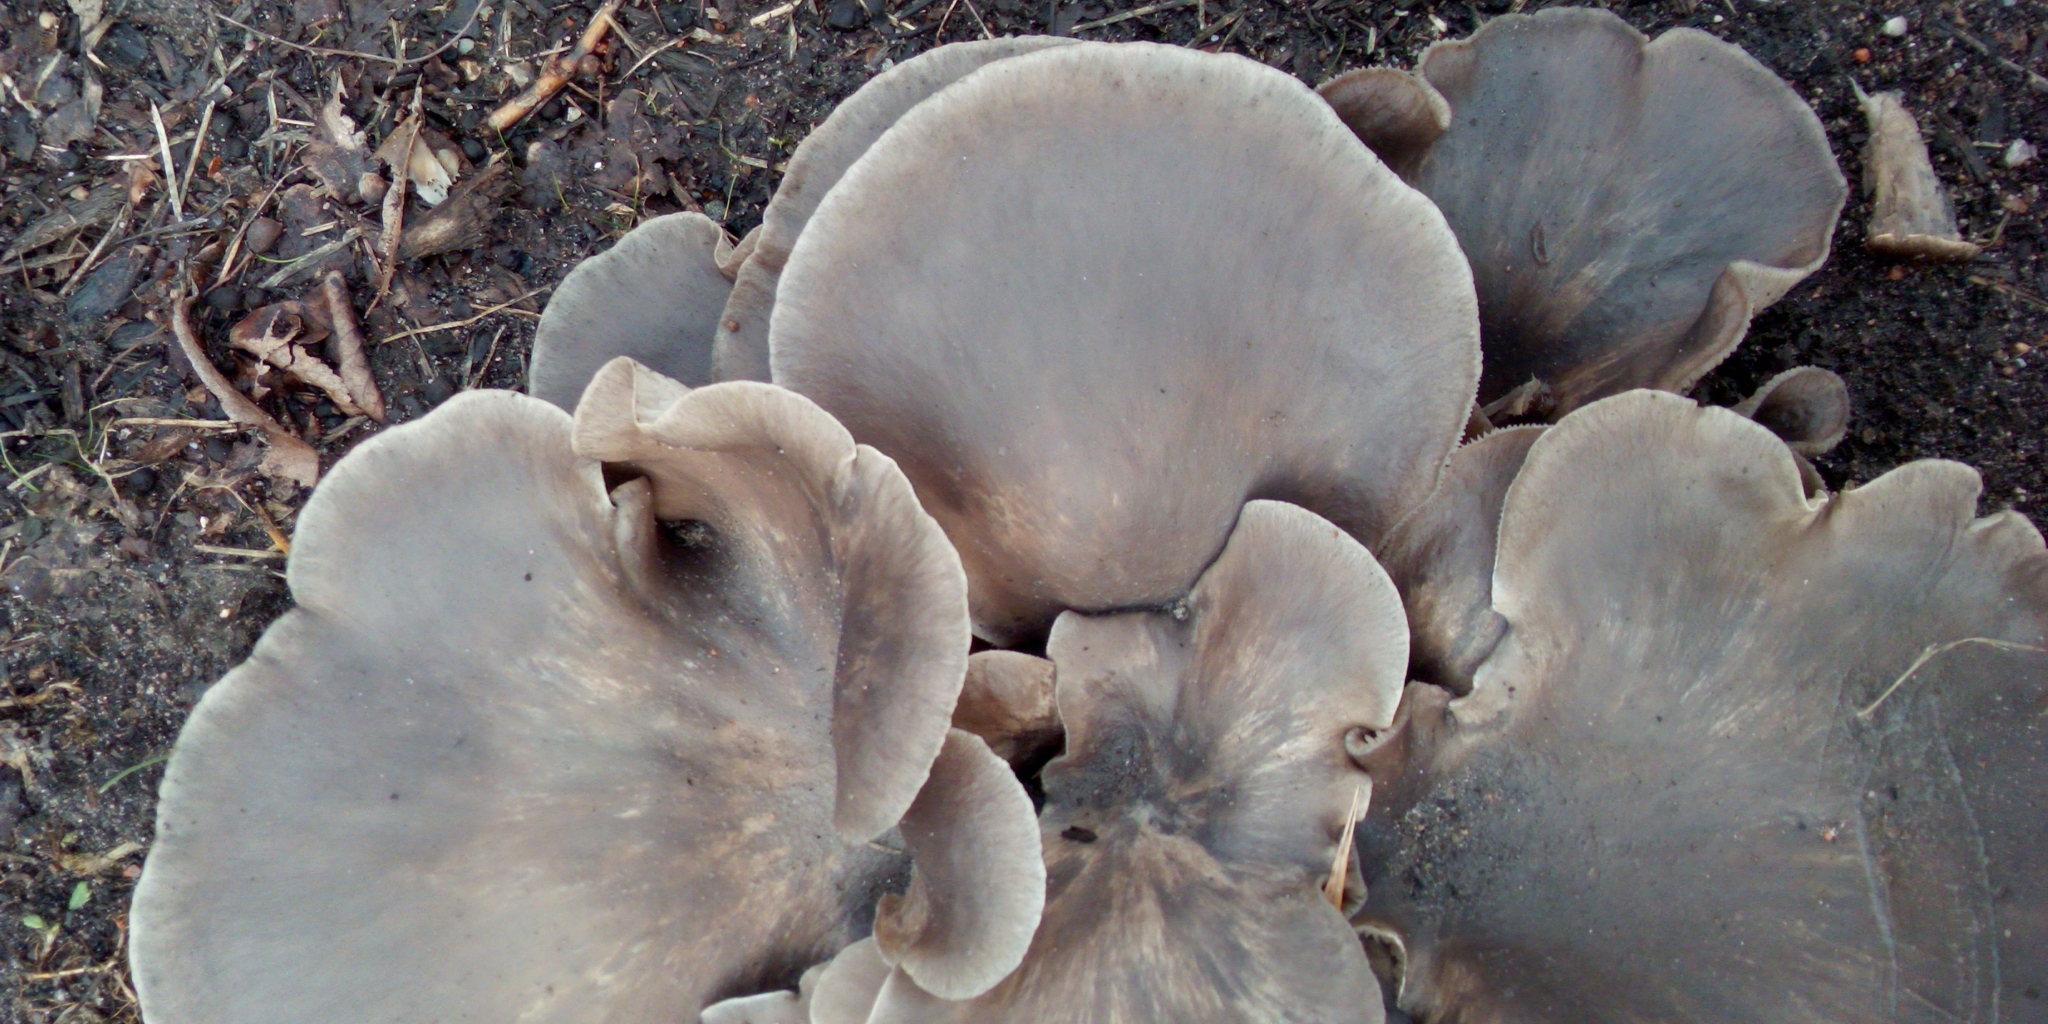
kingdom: Fungi
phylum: Basidiomycota
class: Agaricomycetes
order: Agaricales
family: Pleurotaceae
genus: Pleurotus
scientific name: Pleurotus ostreatus
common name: Oyster mushroom
